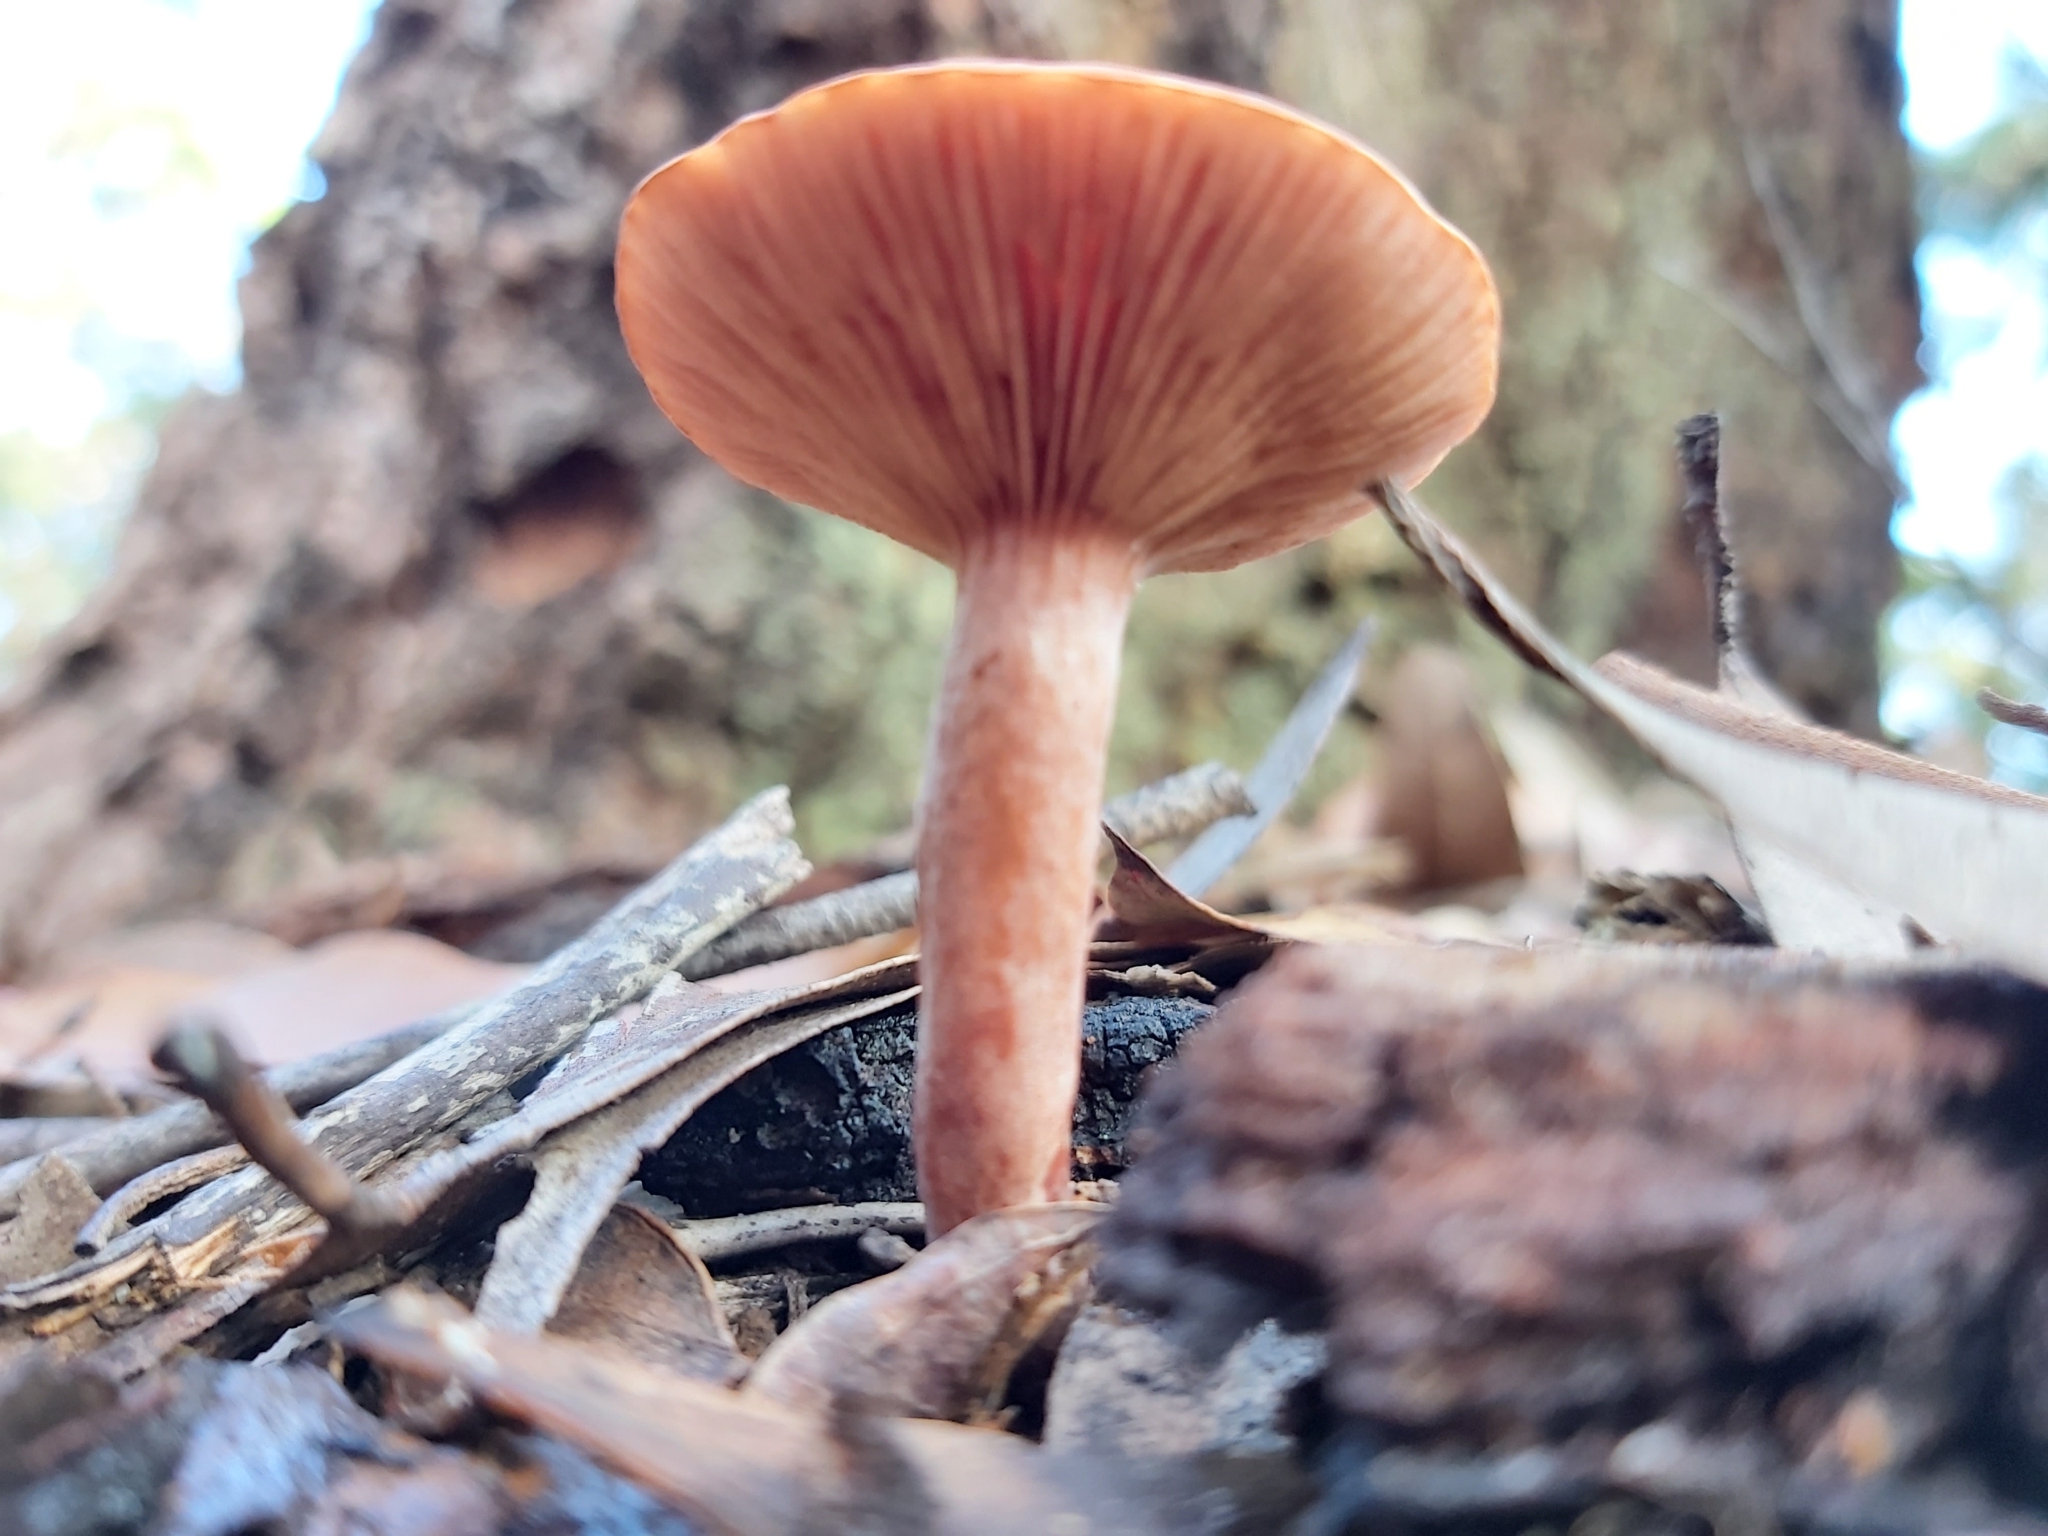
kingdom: Fungi
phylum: Basidiomycota
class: Agaricomycetes
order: Russulales
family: Russulaceae
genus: Lactarius
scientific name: Lactarius eucalypti
